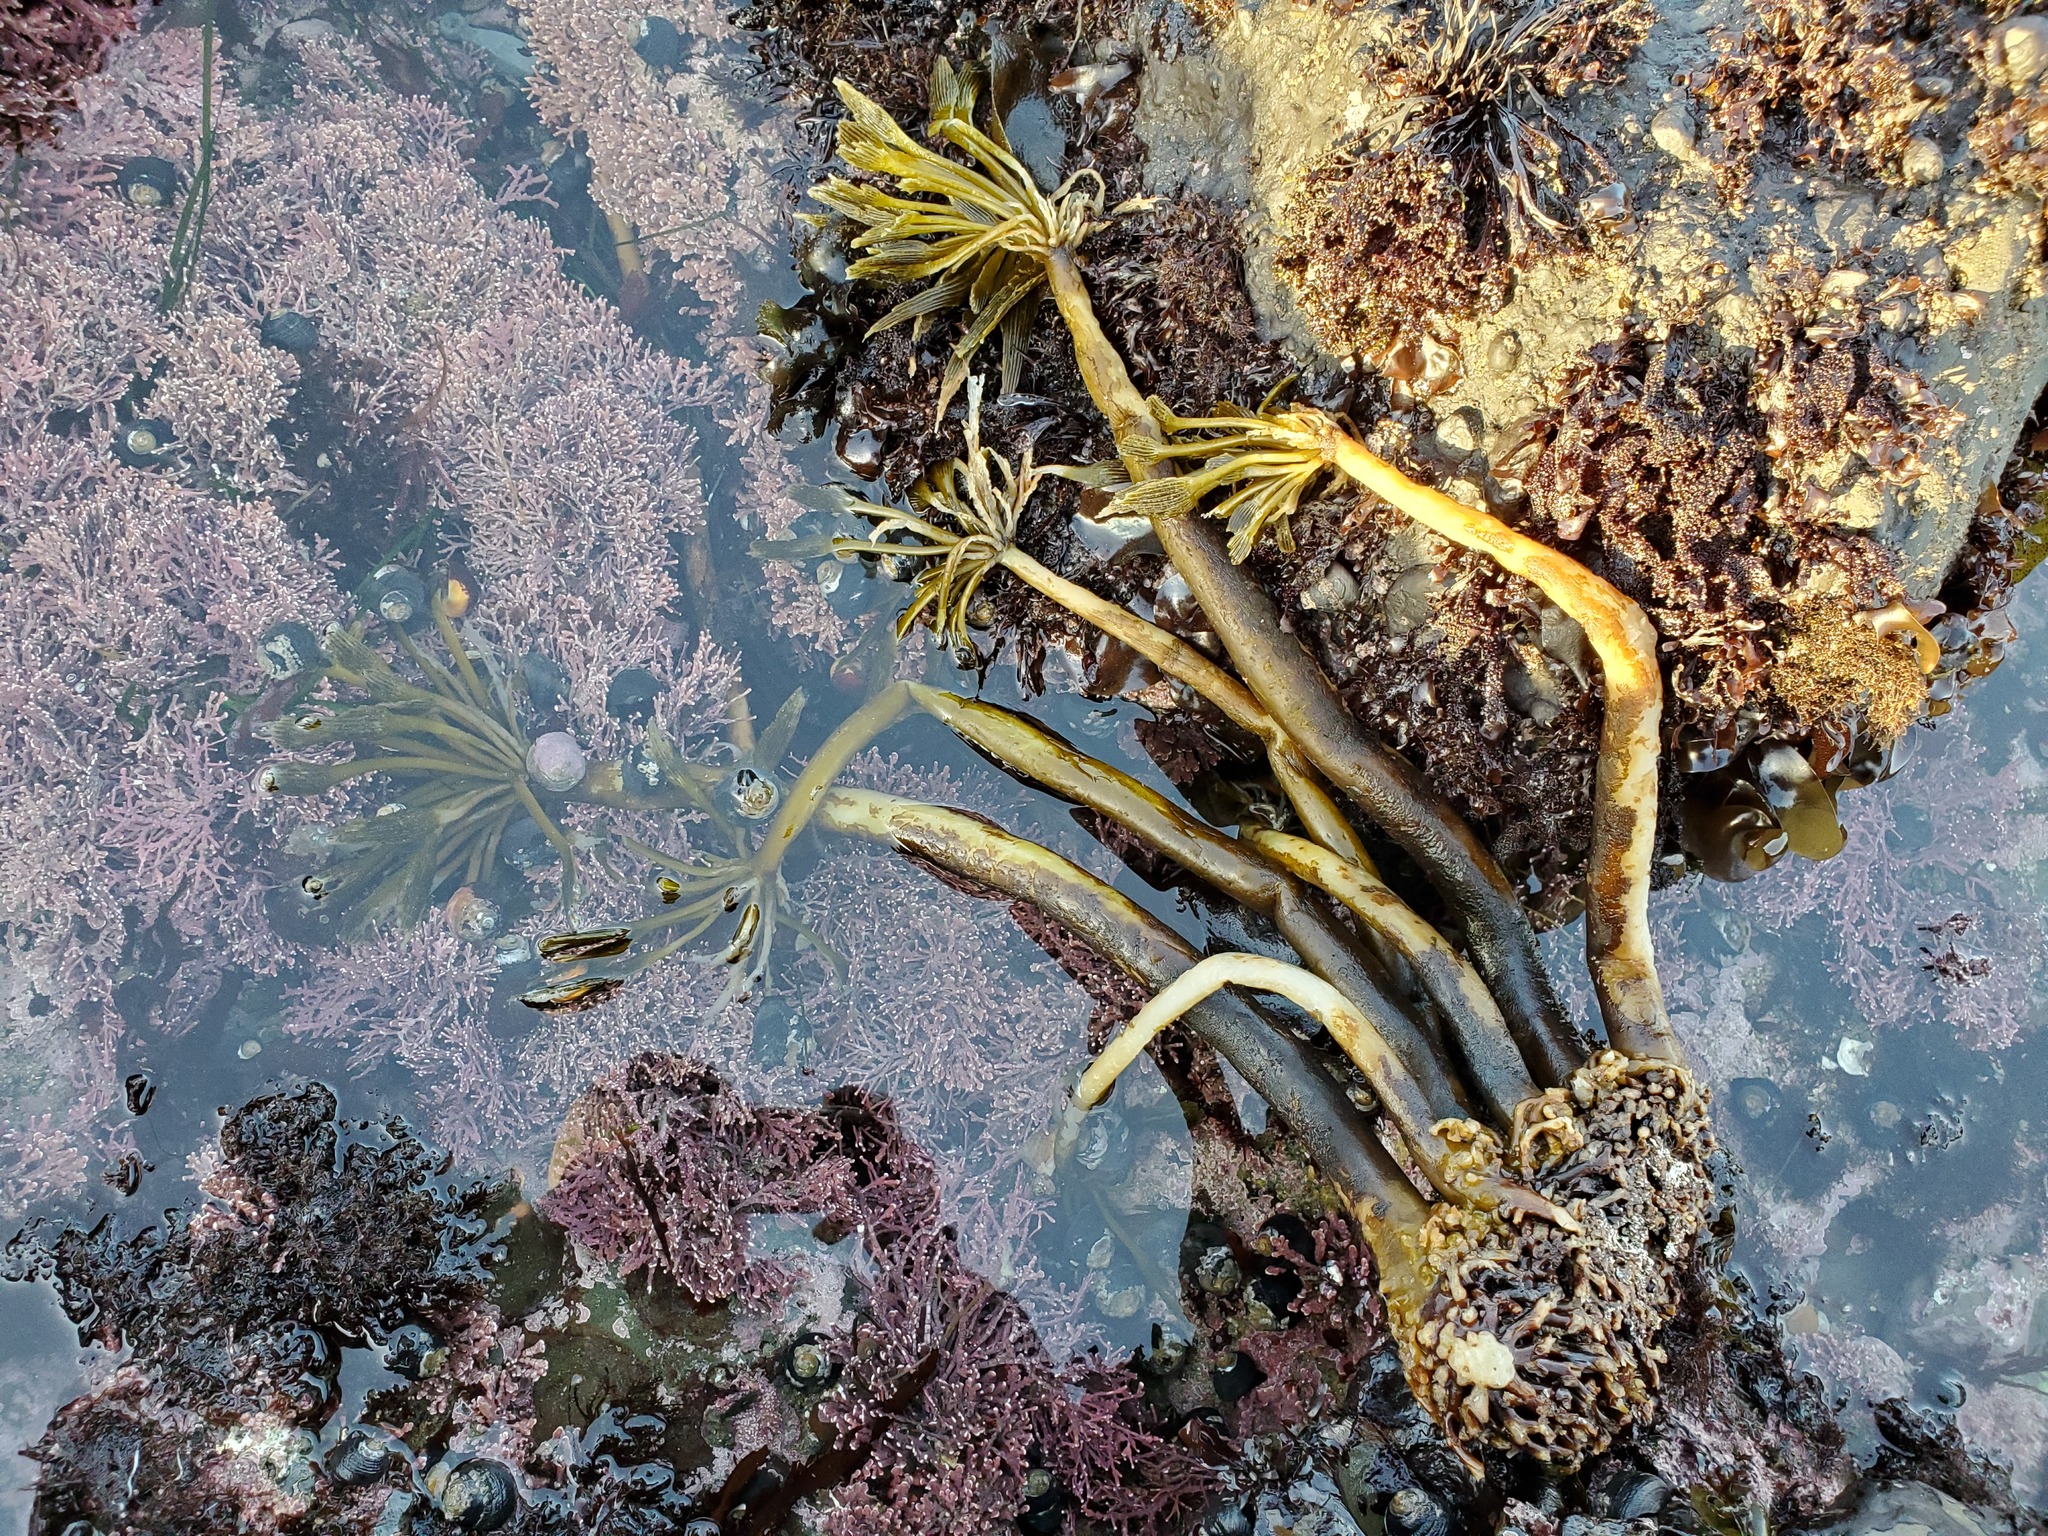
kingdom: Chromista
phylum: Ochrophyta
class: Phaeophyceae
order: Laminariales
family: Laminariaceae
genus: Postelsia
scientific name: Postelsia palmiformis
